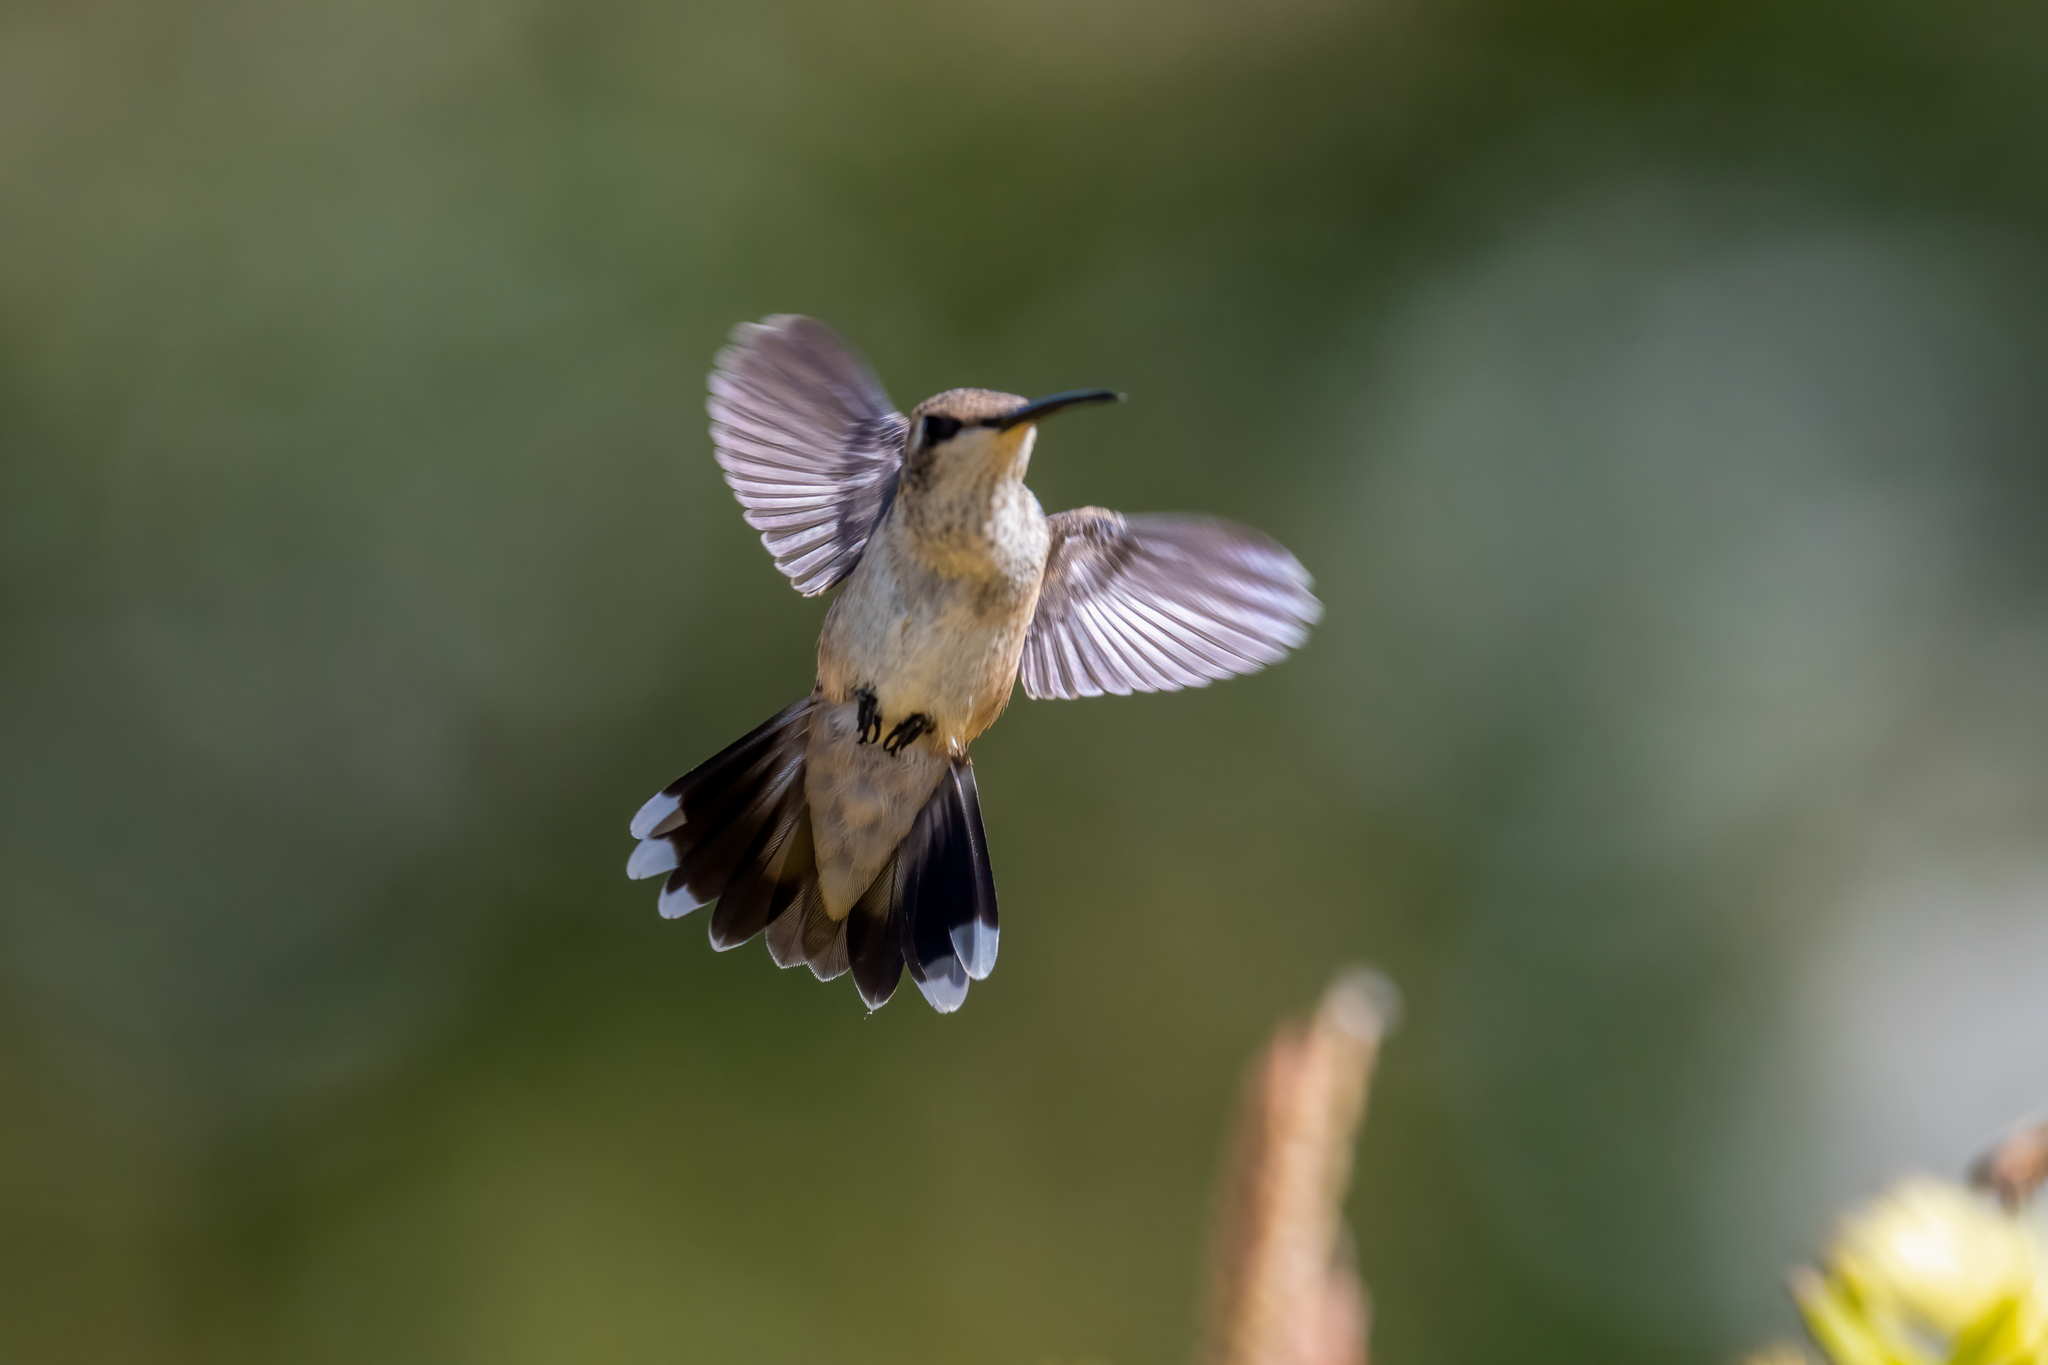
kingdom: Animalia
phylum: Chordata
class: Aves
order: Apodiformes
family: Trochilidae
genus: Archilochus
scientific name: Archilochus alexandri
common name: Black-chinned hummingbird
